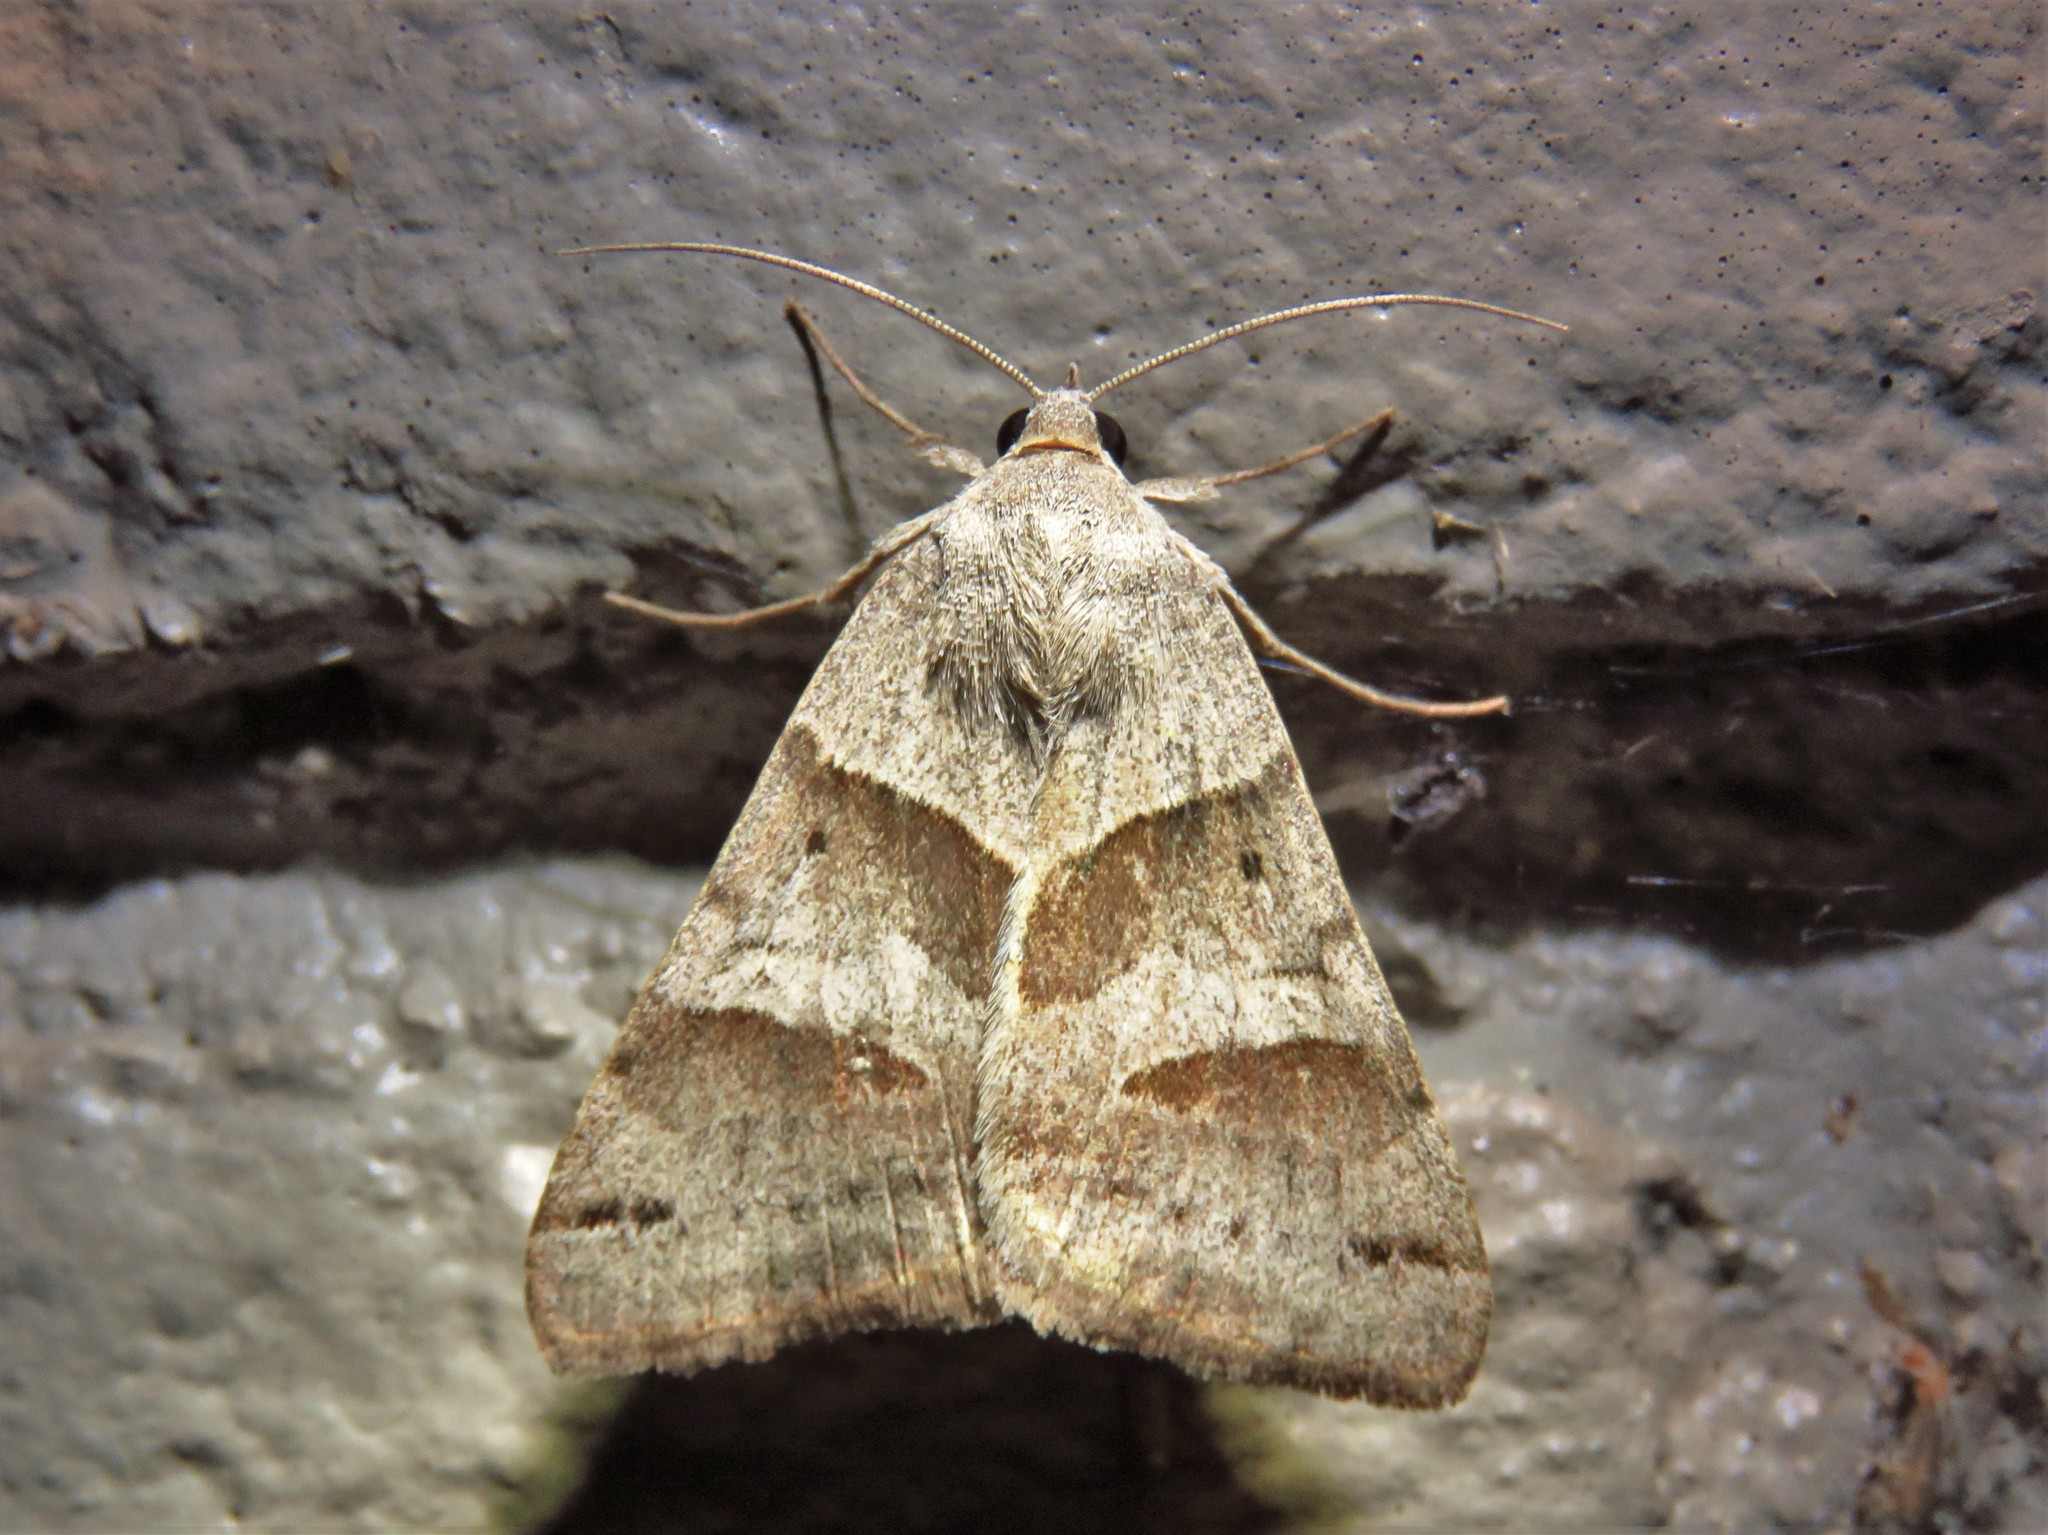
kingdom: Animalia
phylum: Arthropoda
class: Insecta
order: Lepidoptera
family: Erebidae
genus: Caenurgina
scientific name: Caenurgina erechtea
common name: Forage looper moth
